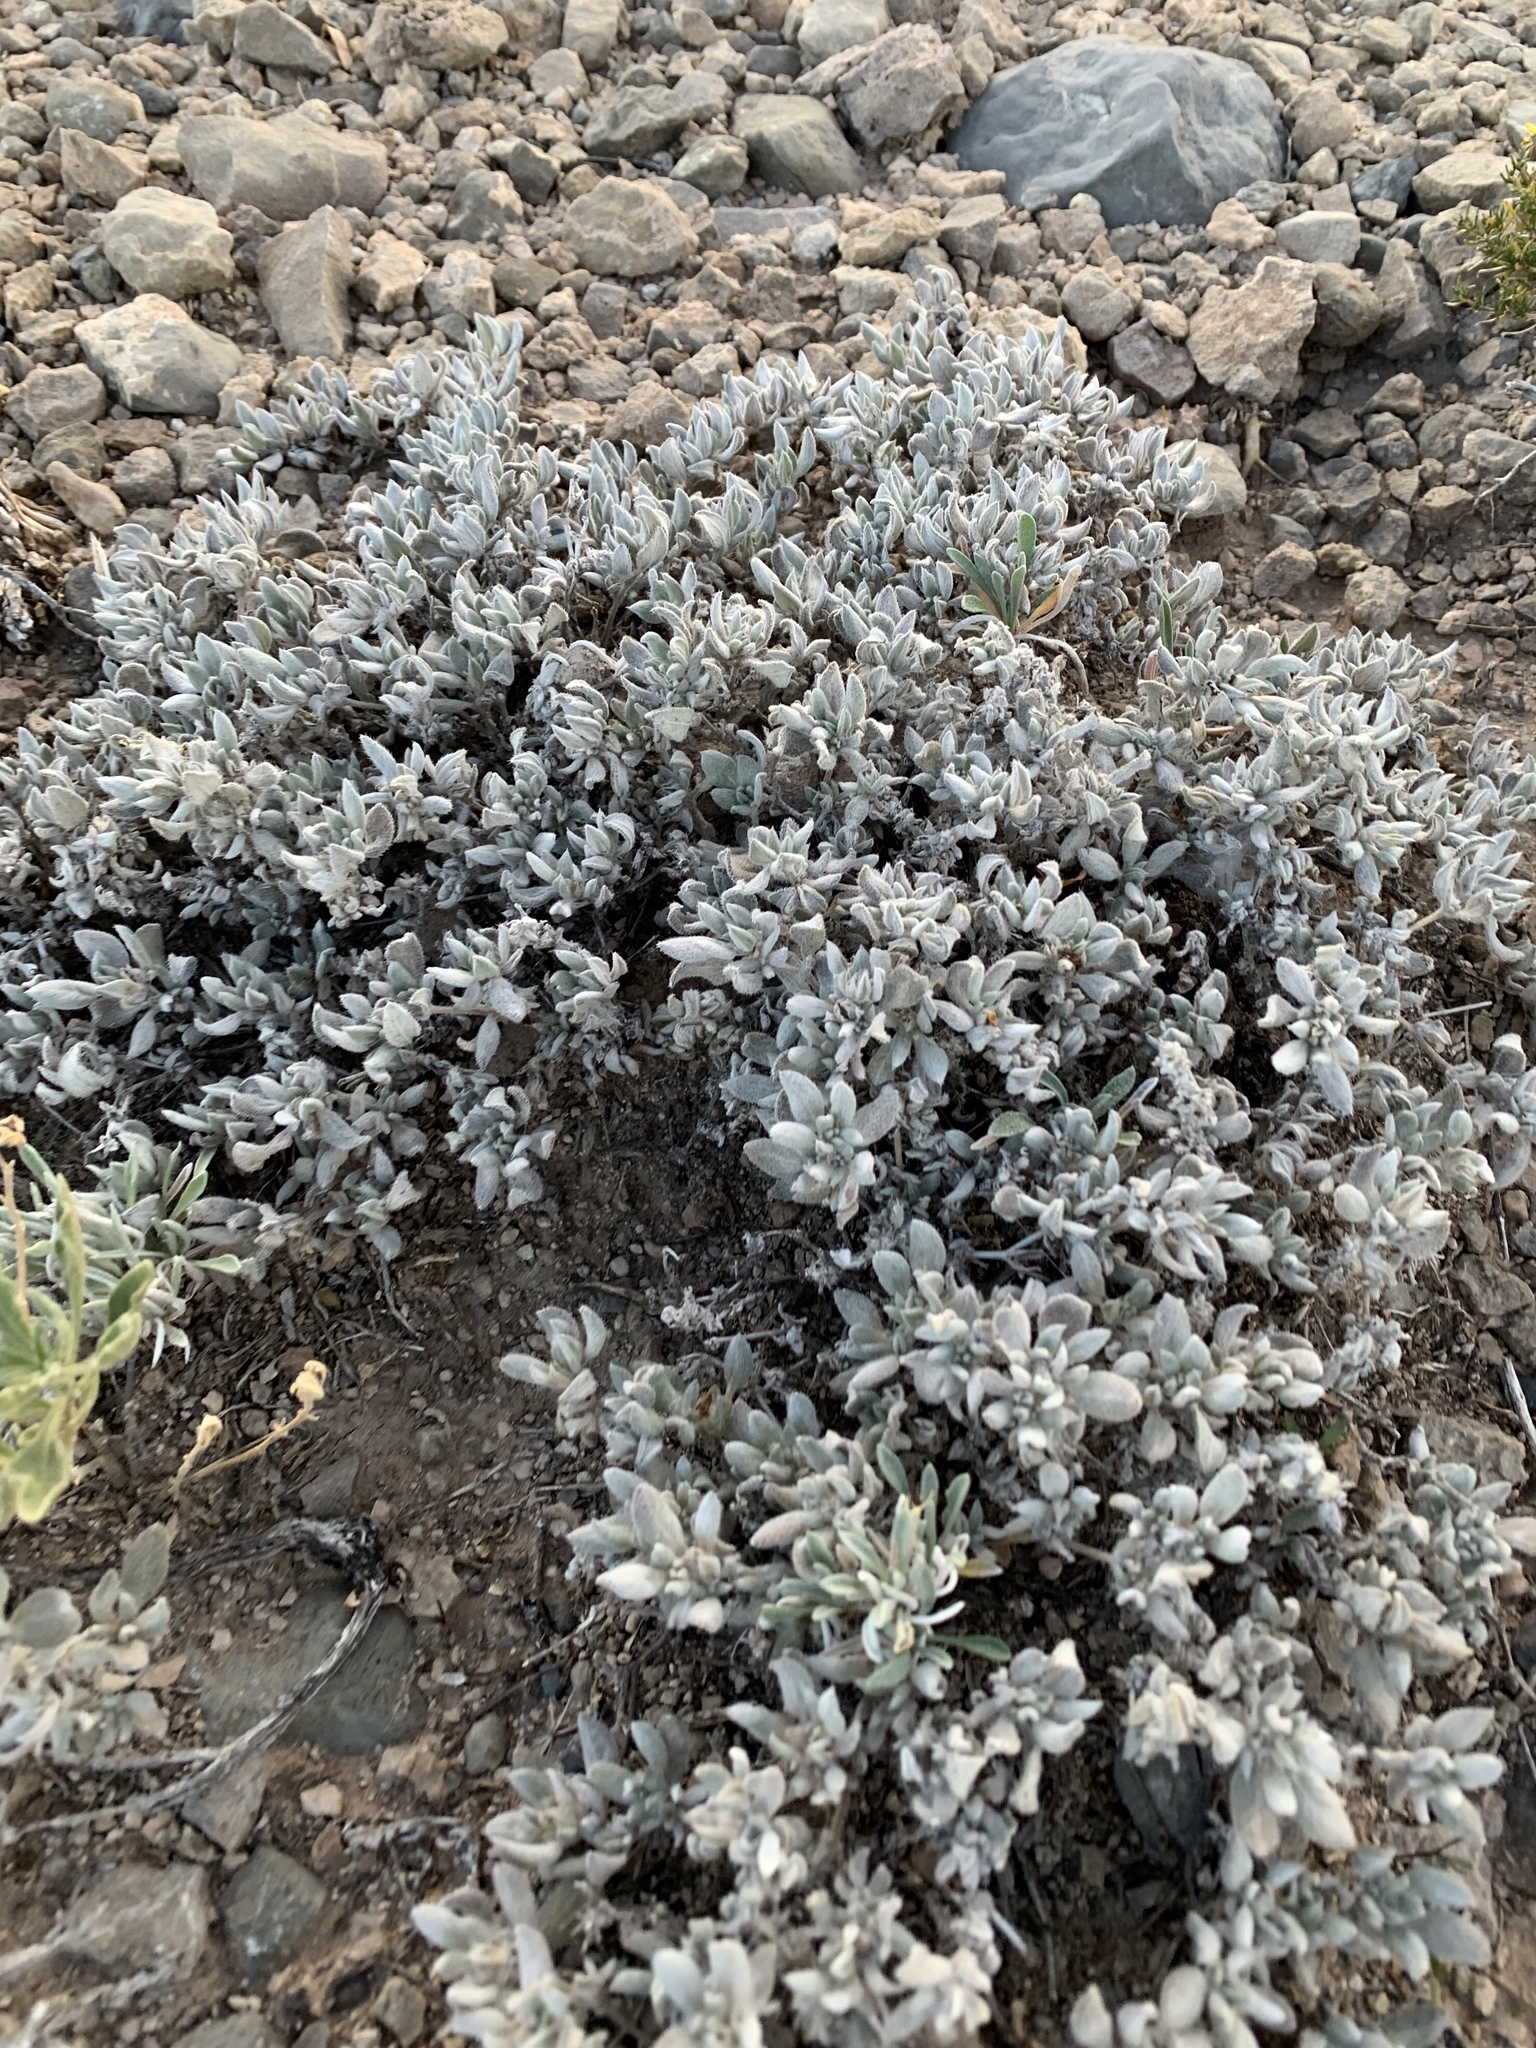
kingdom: Plantae
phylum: Tracheophyta
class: Magnoliopsida
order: Boraginales
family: Ehretiaceae
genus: Tiquilia
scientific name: Tiquilia canescens
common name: Hairy tiquilia
